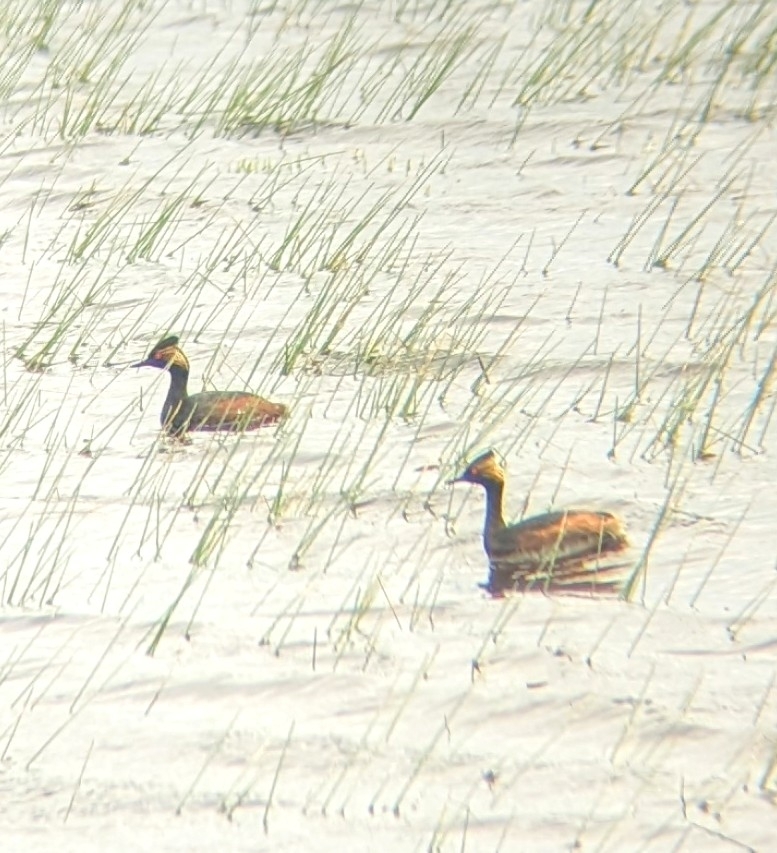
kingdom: Animalia
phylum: Chordata
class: Aves
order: Podicipediformes
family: Podicipedidae
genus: Podiceps
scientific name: Podiceps nigricollis
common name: Black-necked grebe
